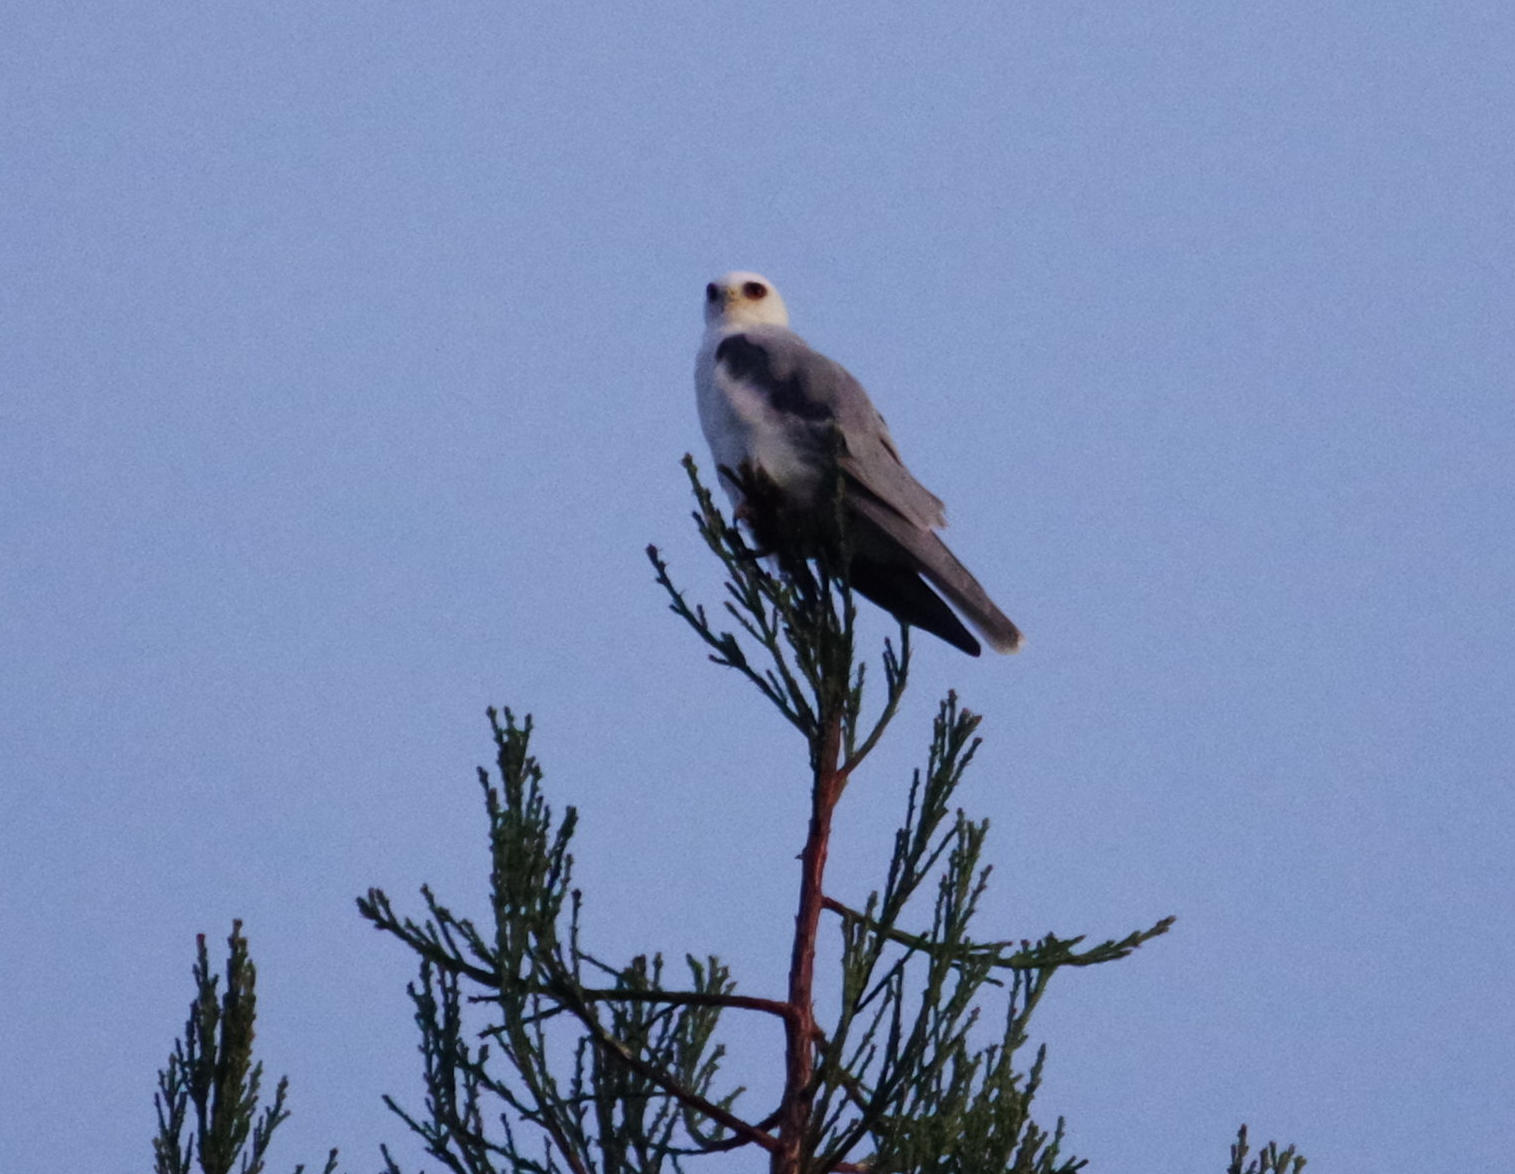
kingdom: Animalia
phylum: Chordata
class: Aves
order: Accipitriformes
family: Accipitridae
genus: Elanus
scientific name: Elanus leucurus
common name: White-tailed kite
